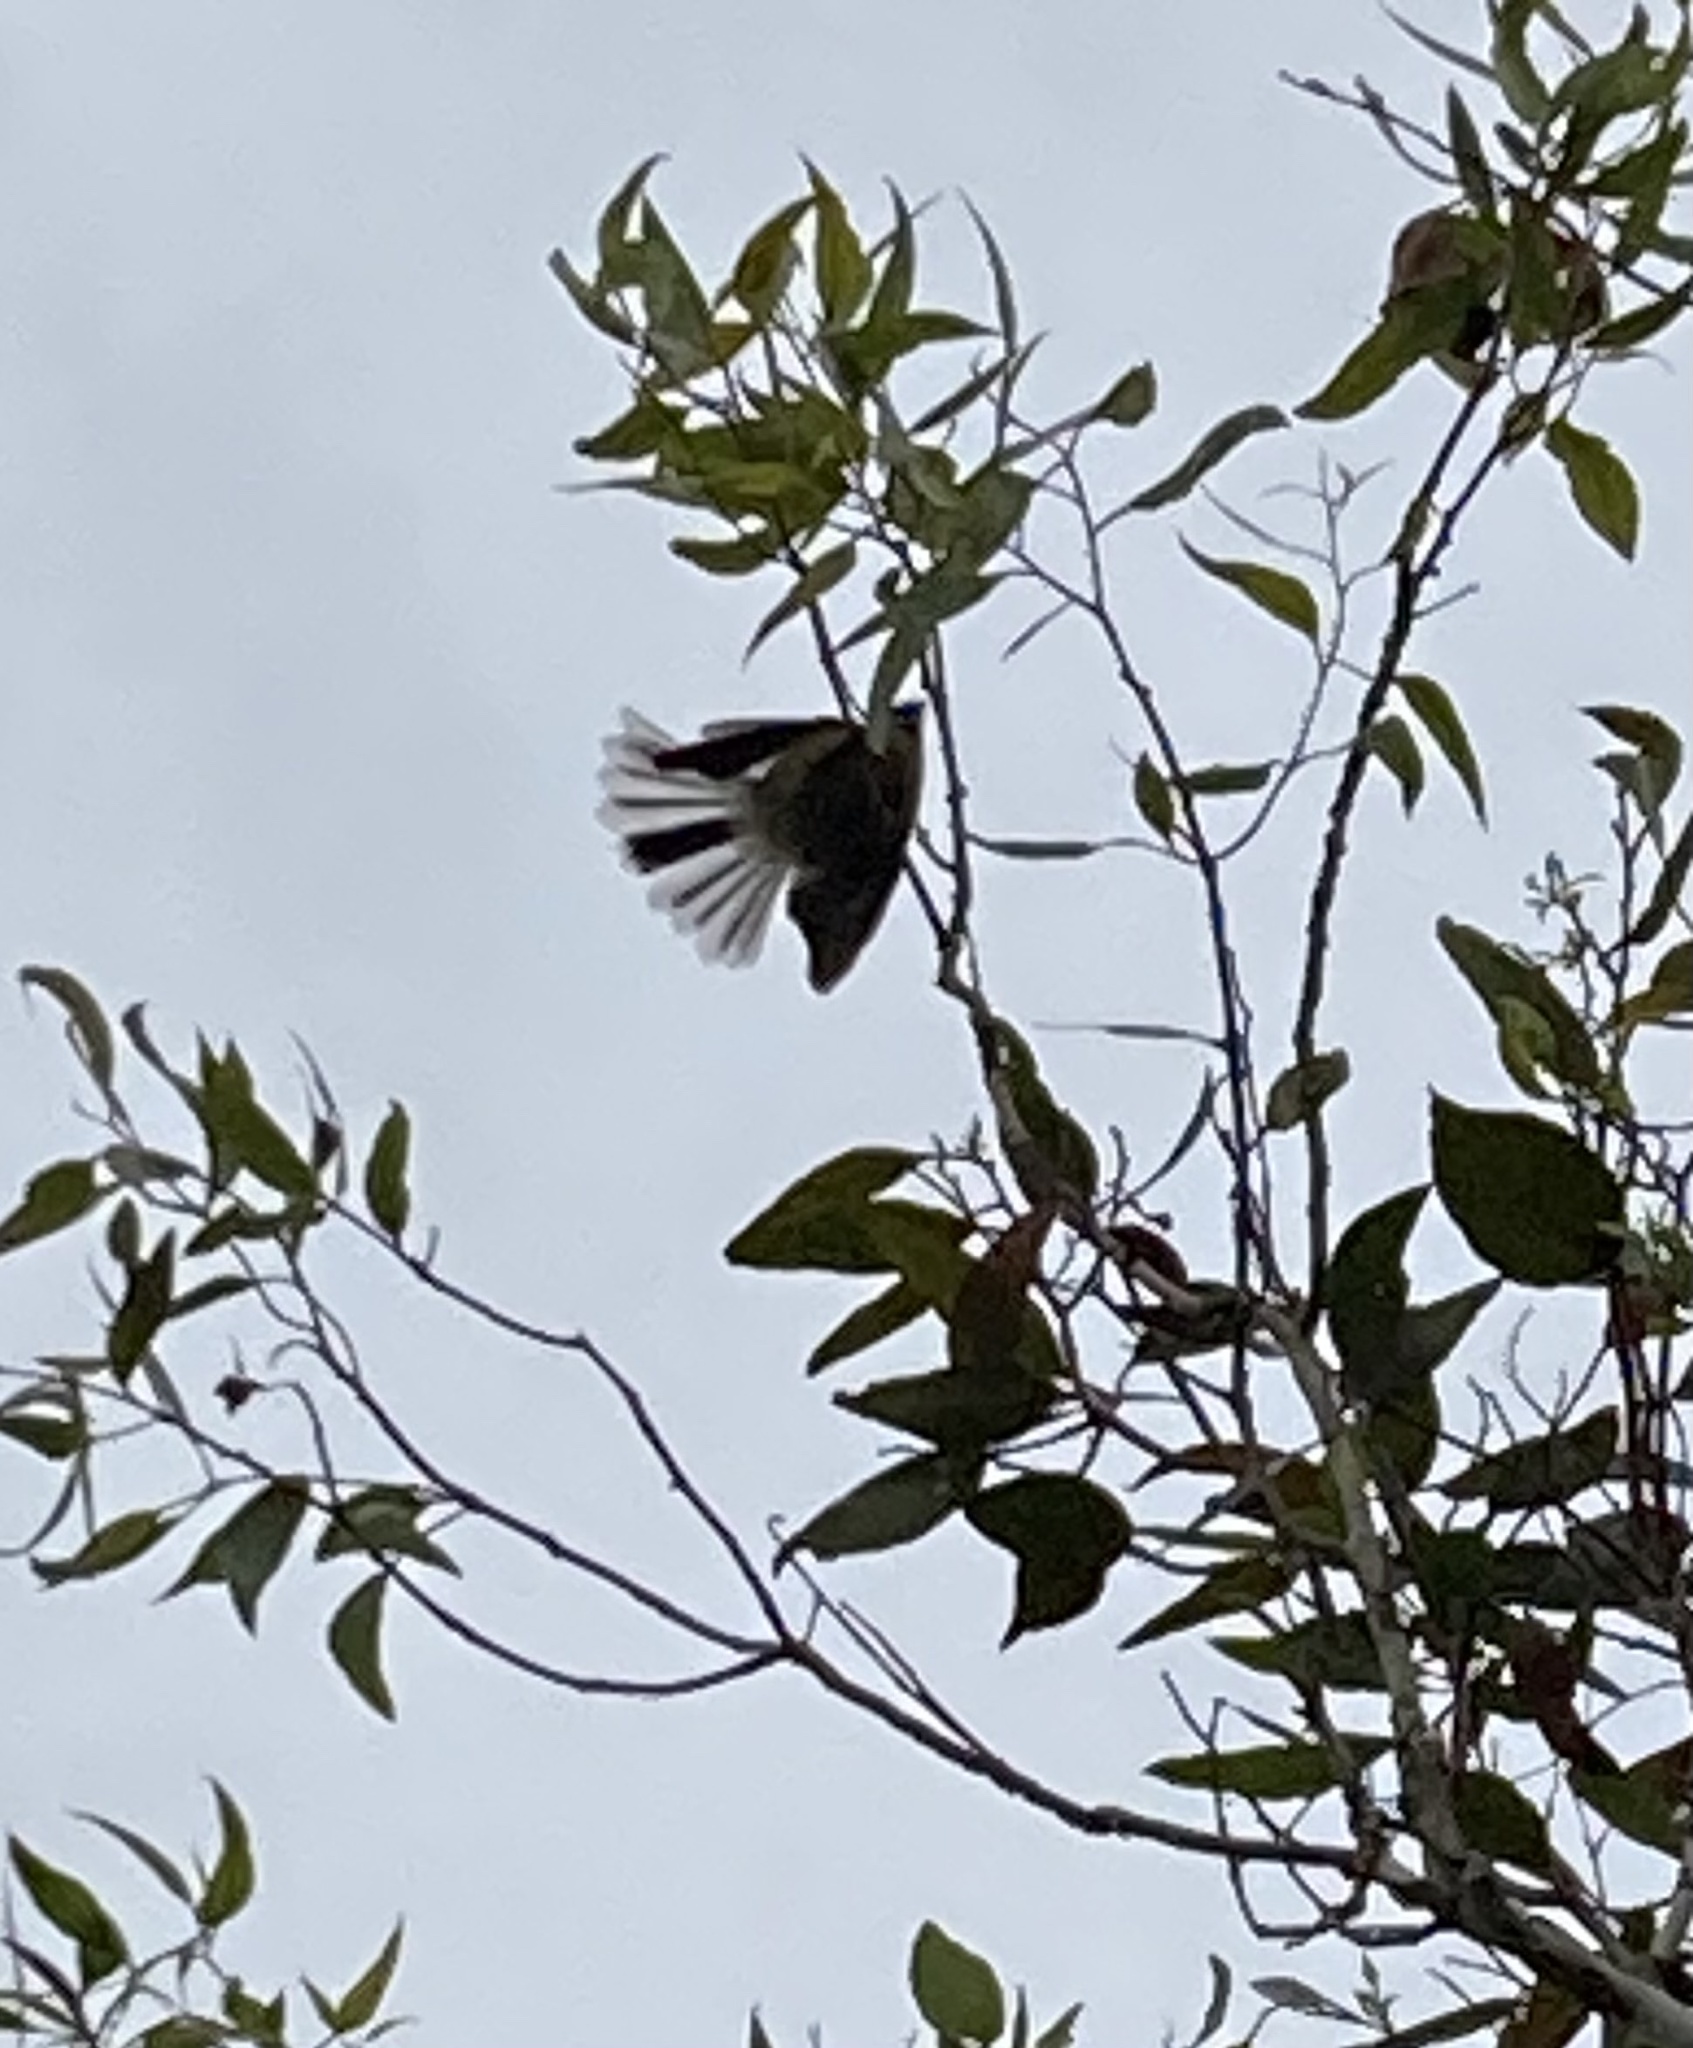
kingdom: Animalia
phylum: Chordata
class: Aves
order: Passeriformes
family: Rhipiduridae
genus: Rhipidura
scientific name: Rhipidura fuliginosa
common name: New zealand fantail
